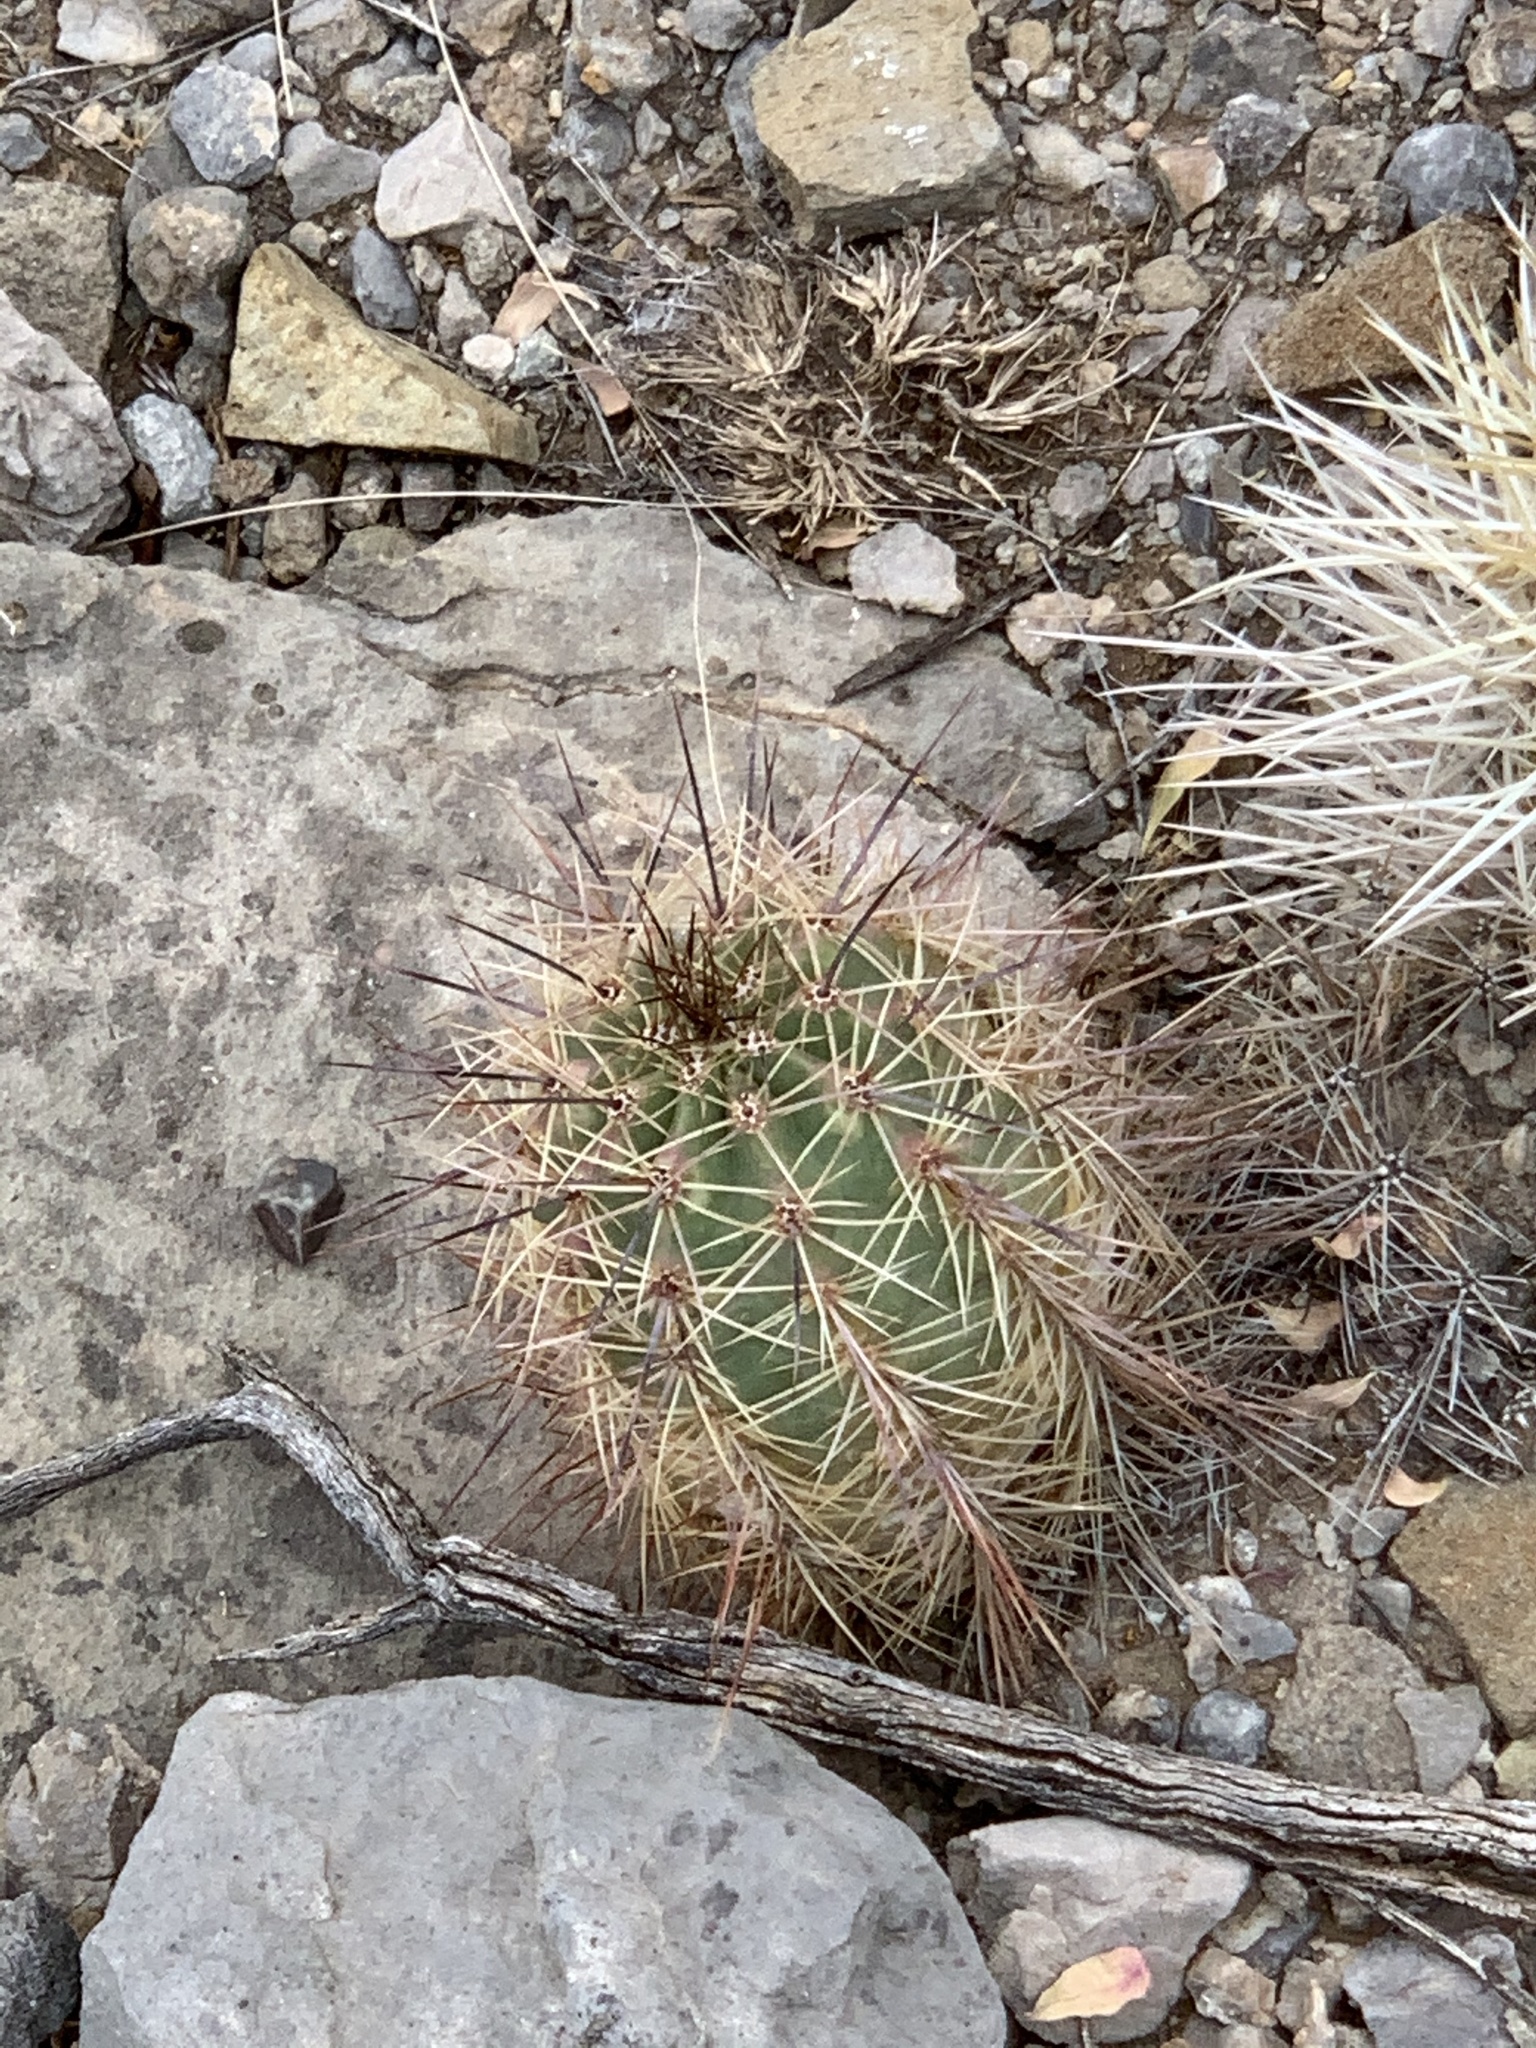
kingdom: Plantae
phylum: Tracheophyta
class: Magnoliopsida
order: Caryophyllales
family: Cactaceae
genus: Echinocereus
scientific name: Echinocereus coccineus
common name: Scarlet hedgehog cactus
